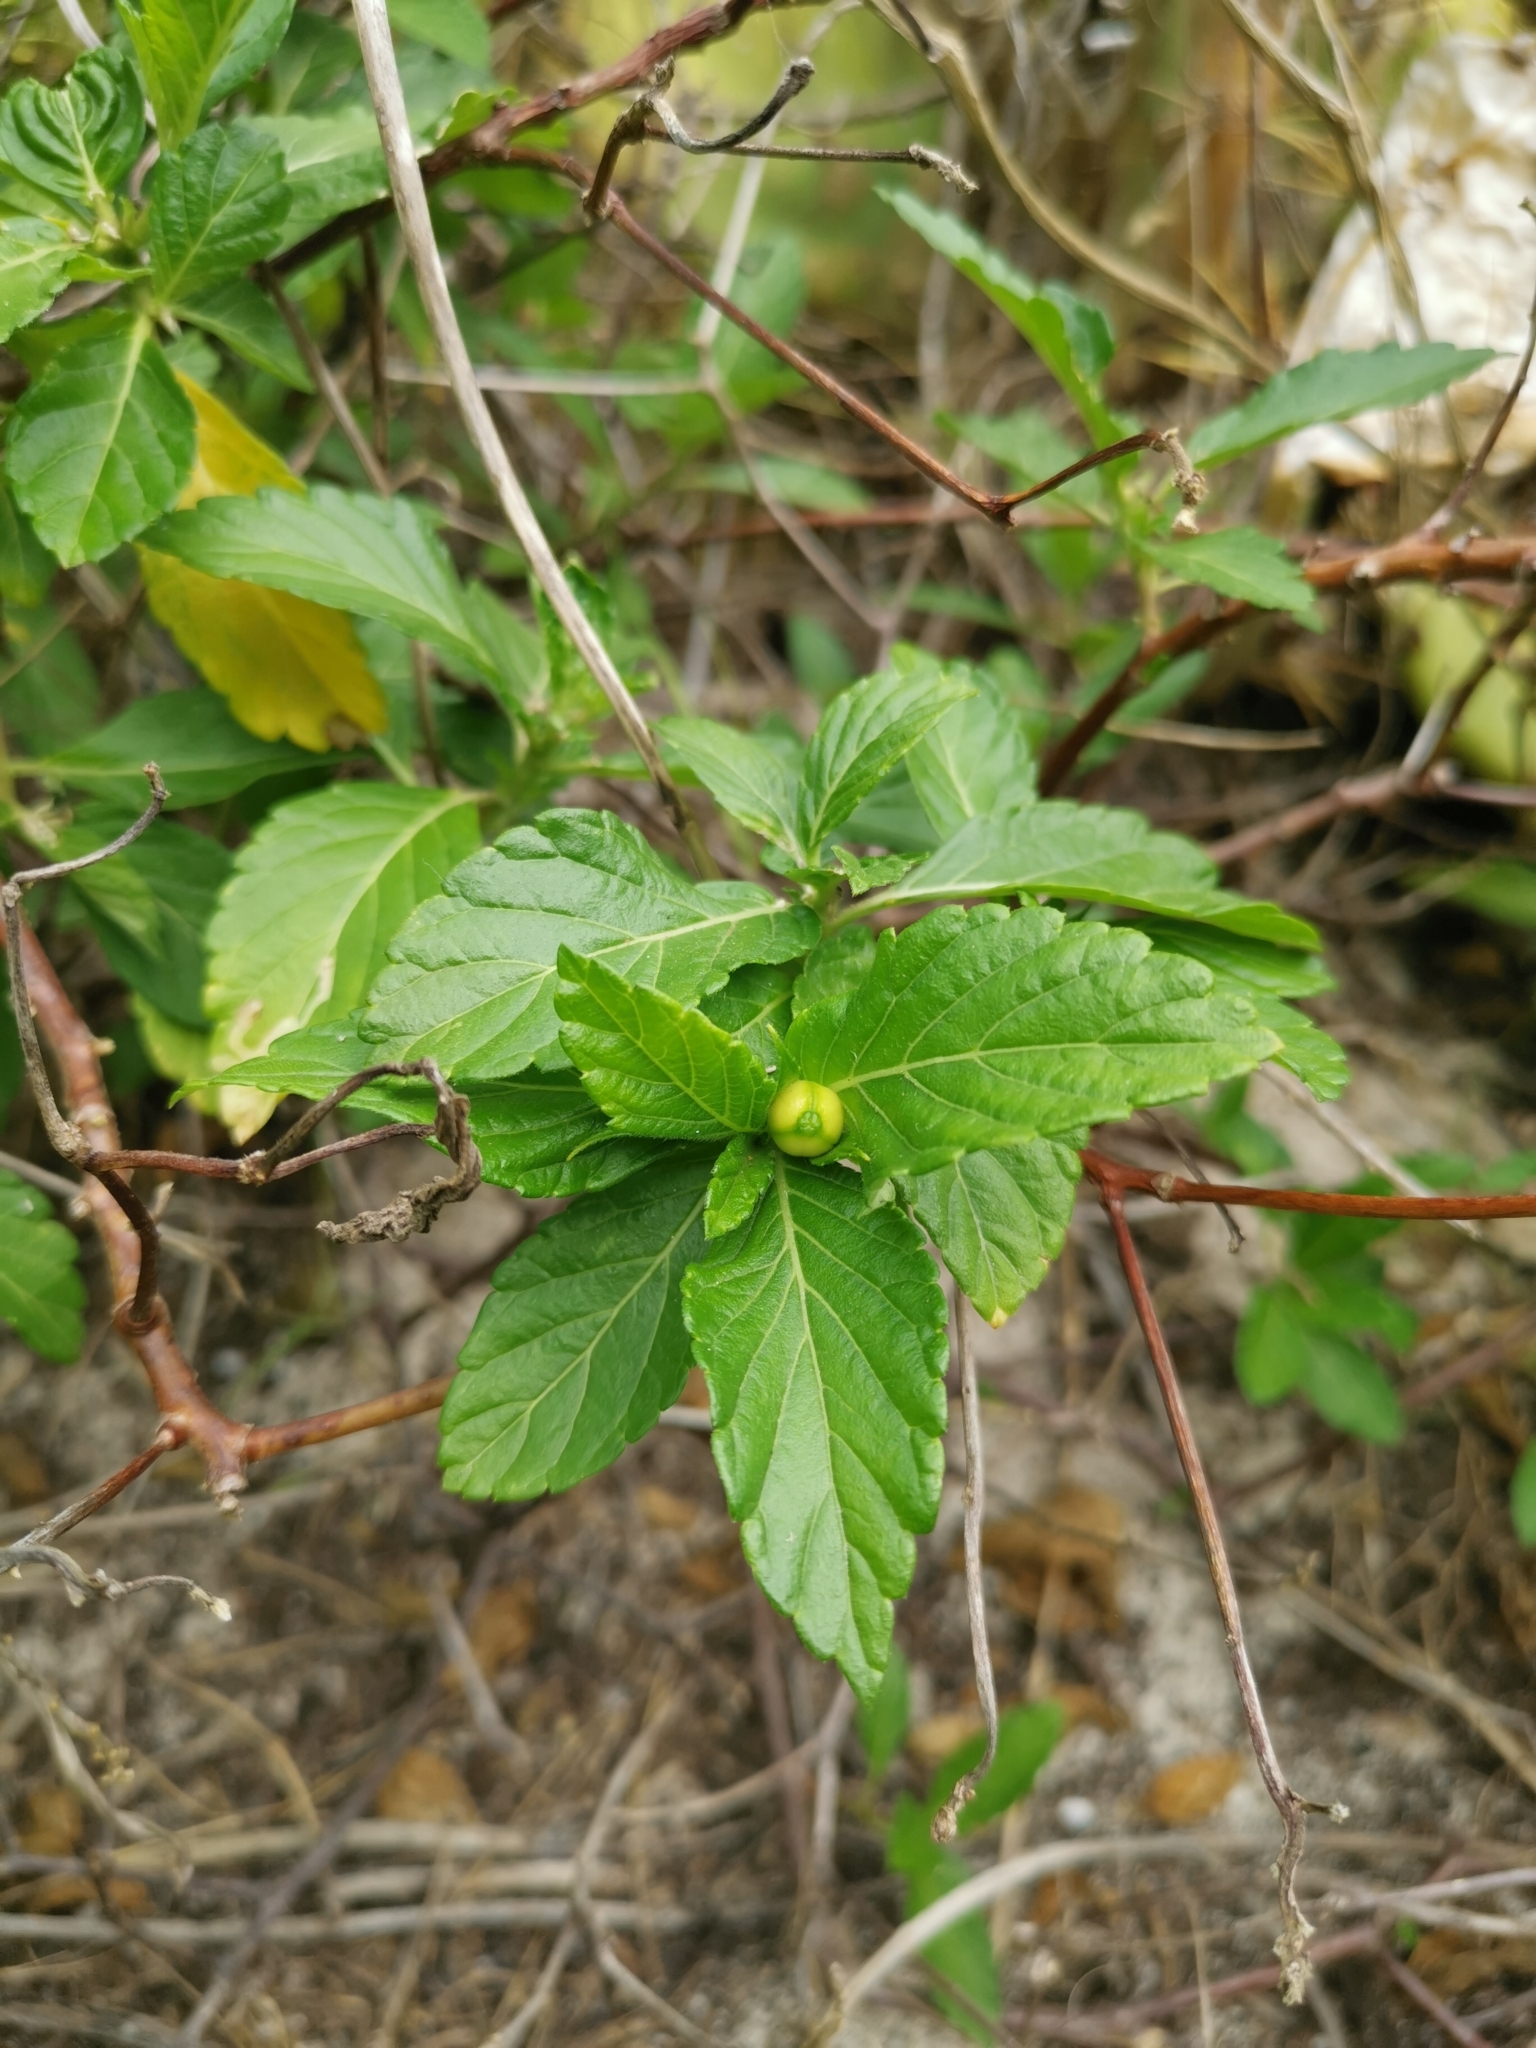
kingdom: Plantae
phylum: Tracheophyta
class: Magnoliopsida
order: Malpighiales
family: Turneraceae
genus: Turnera
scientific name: Turnera ulmifolia
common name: Ramgoat dashalong
